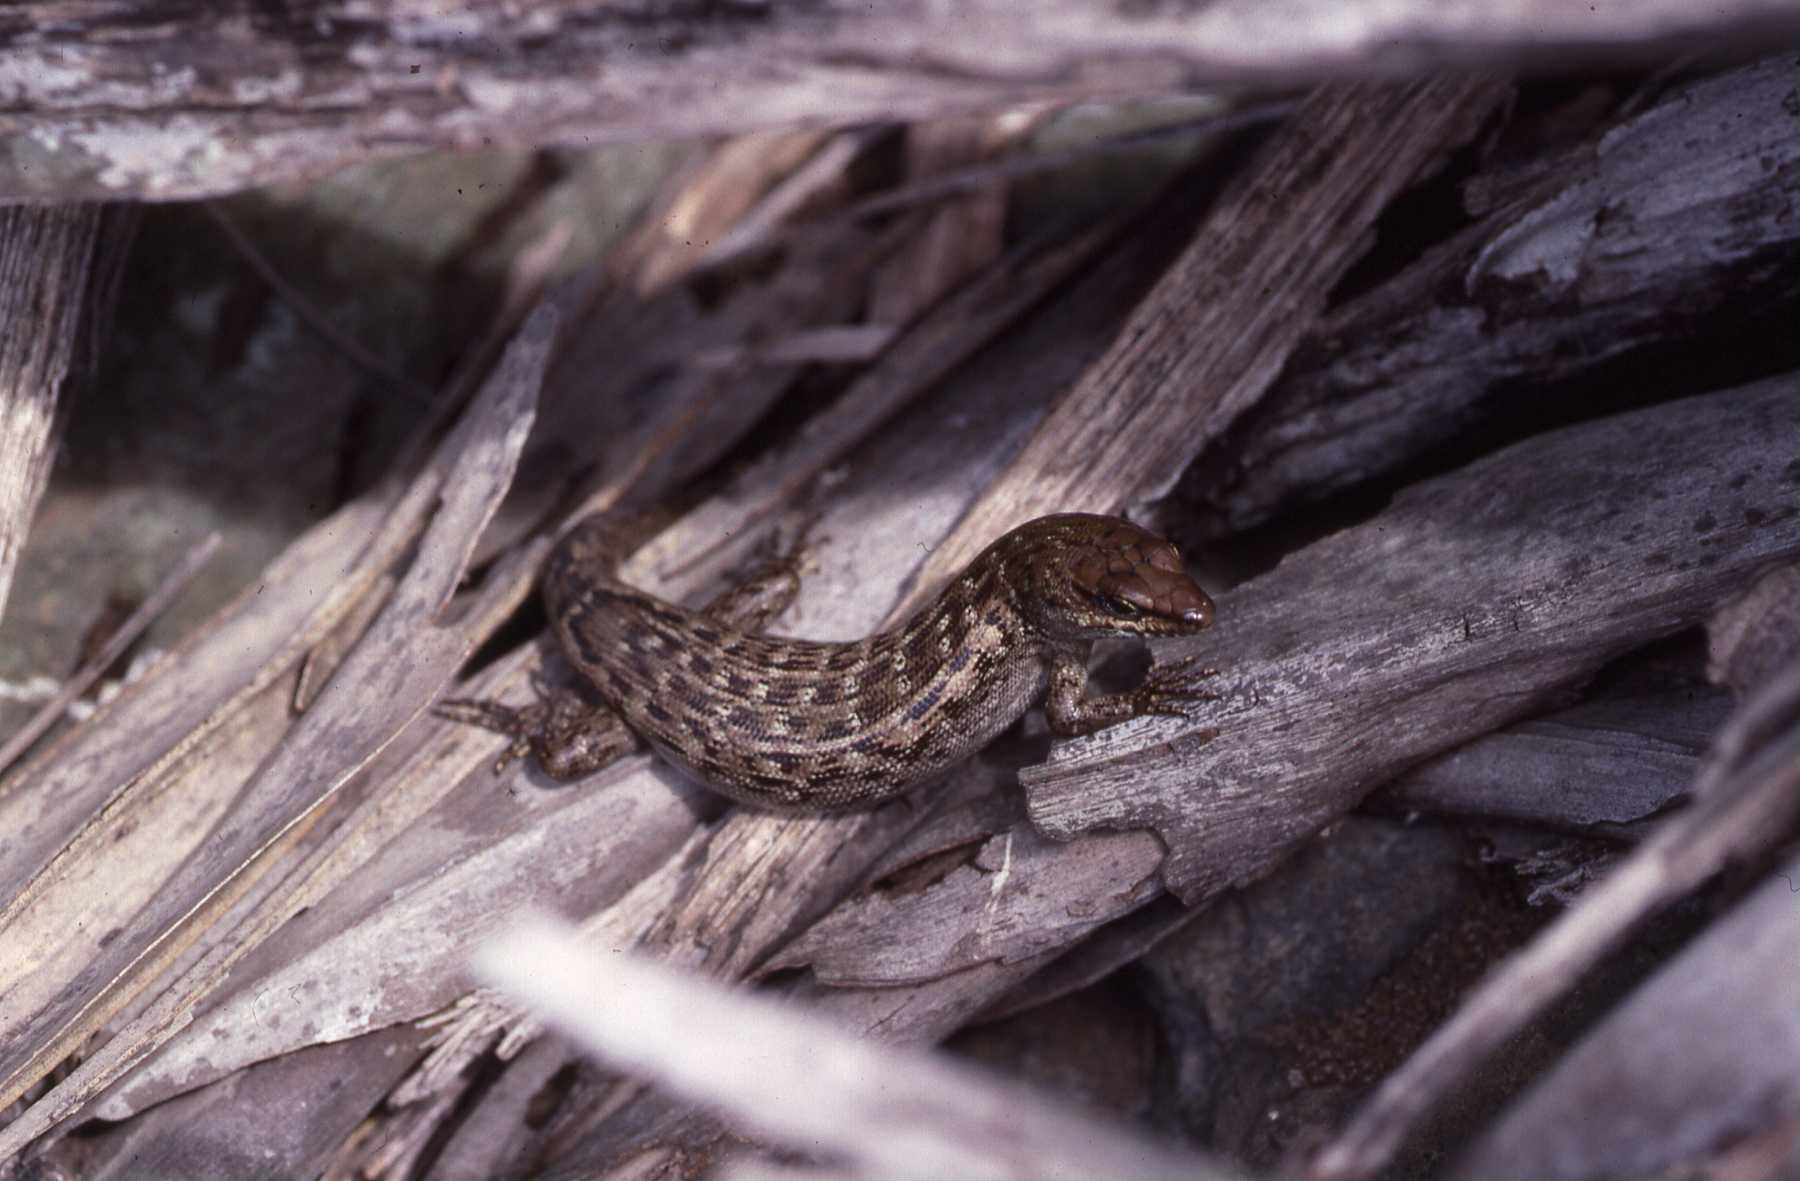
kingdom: Animalia
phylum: Chordata
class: Squamata
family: Scincidae
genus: Leiolopisma
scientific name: Leiolopisma telfairii
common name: Round island skink
